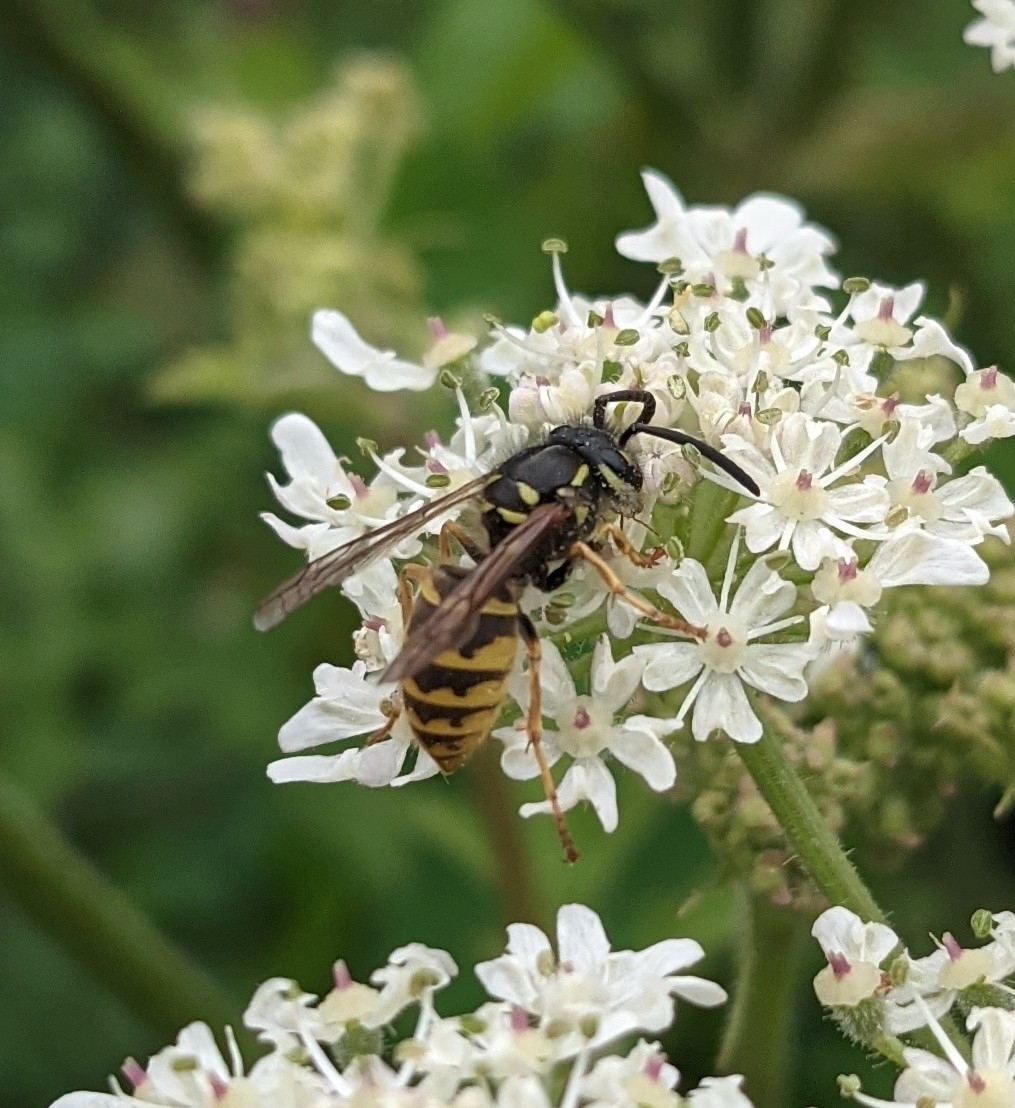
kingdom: Animalia
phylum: Arthropoda
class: Insecta
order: Hymenoptera
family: Vespidae
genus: Vespula
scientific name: Vespula vulgaris
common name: Common wasp
